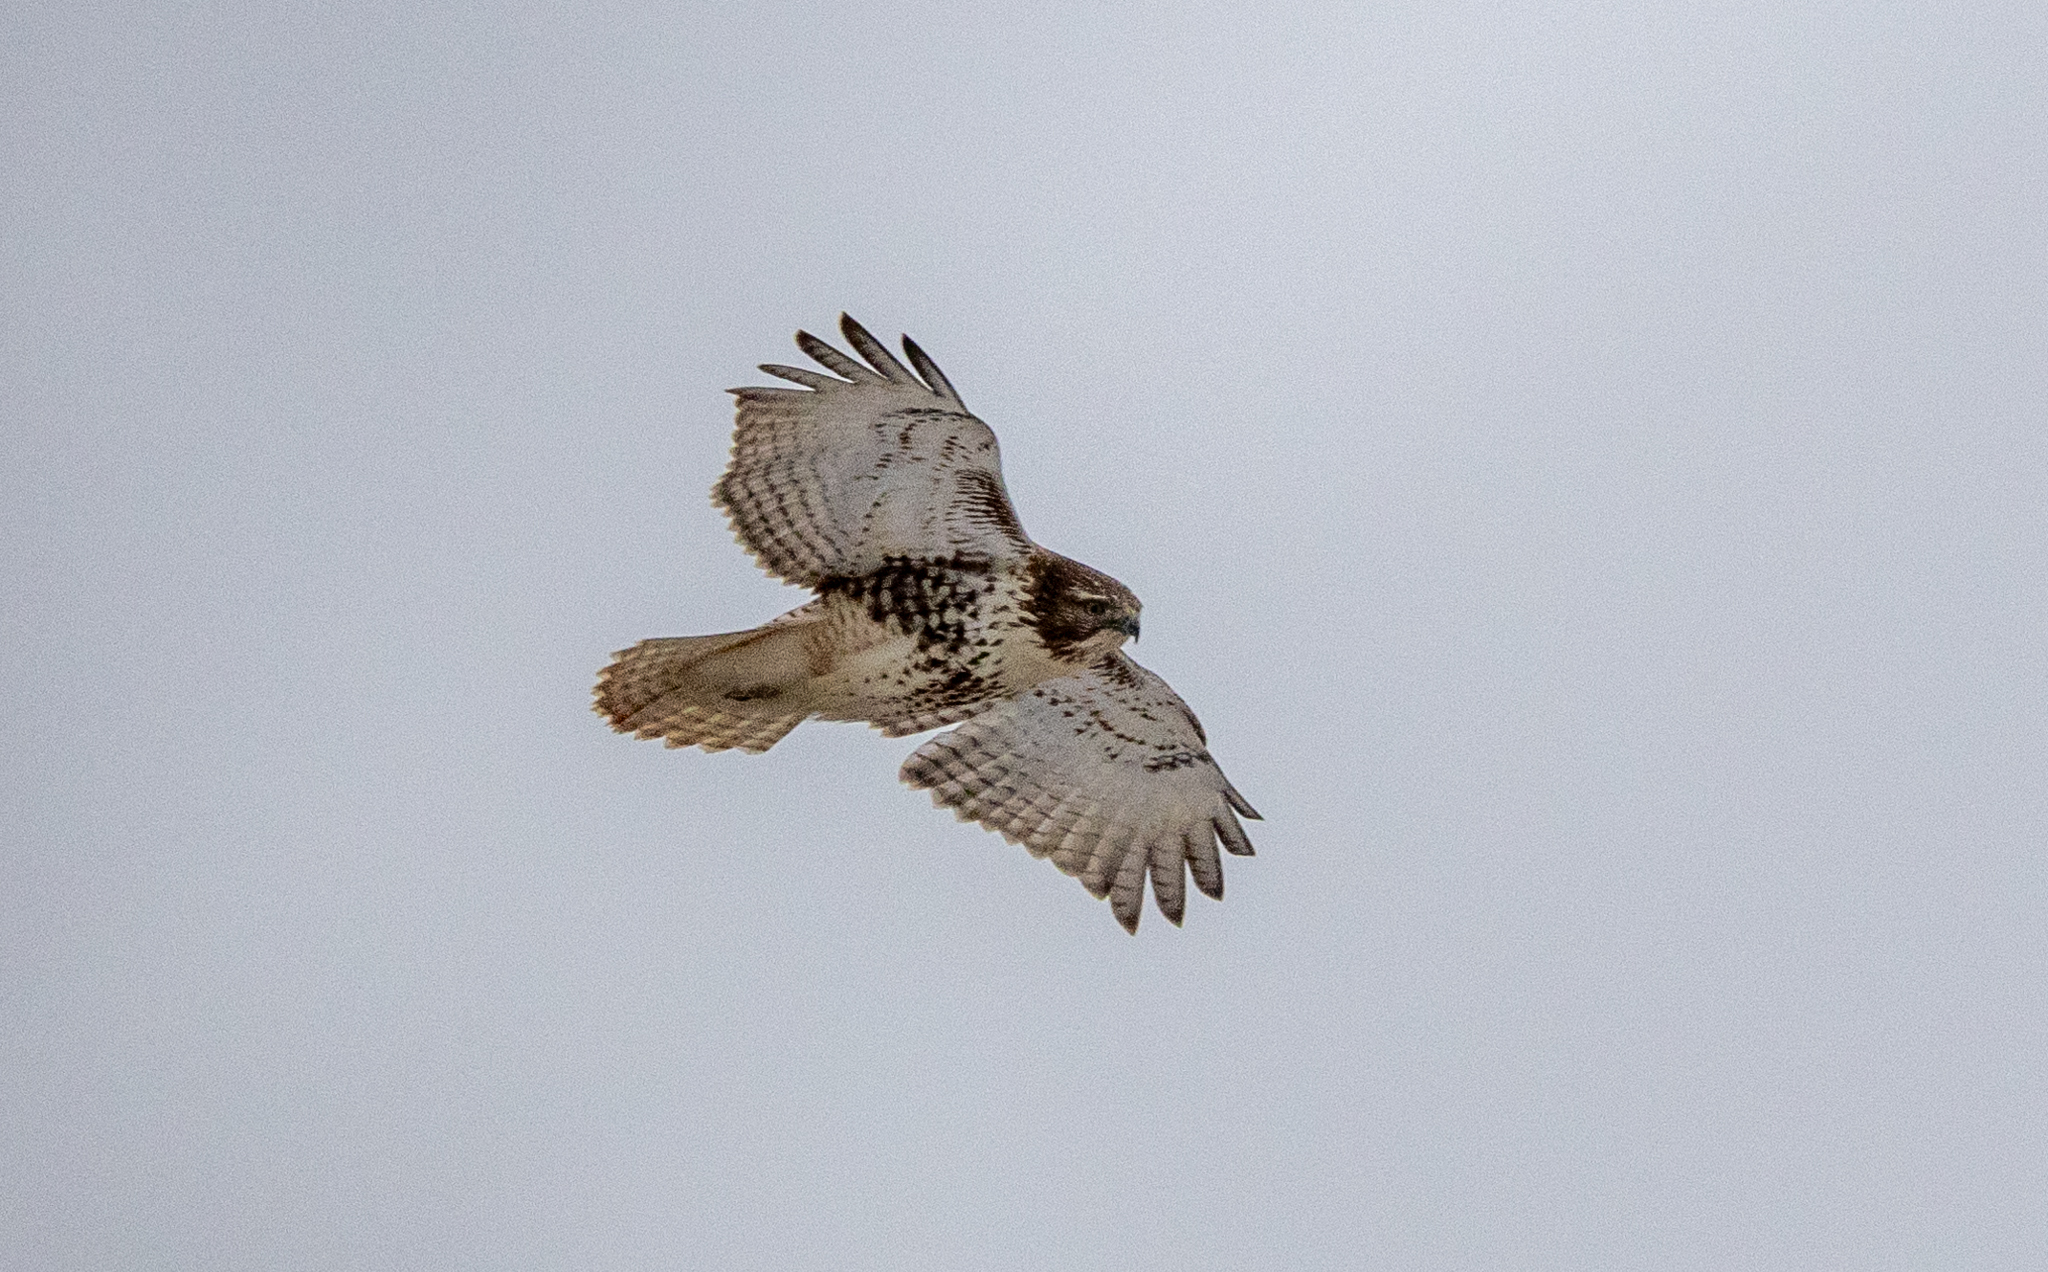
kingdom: Animalia
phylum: Chordata
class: Aves
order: Accipitriformes
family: Accipitridae
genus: Buteo
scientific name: Buteo jamaicensis
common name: Red-tailed hawk
